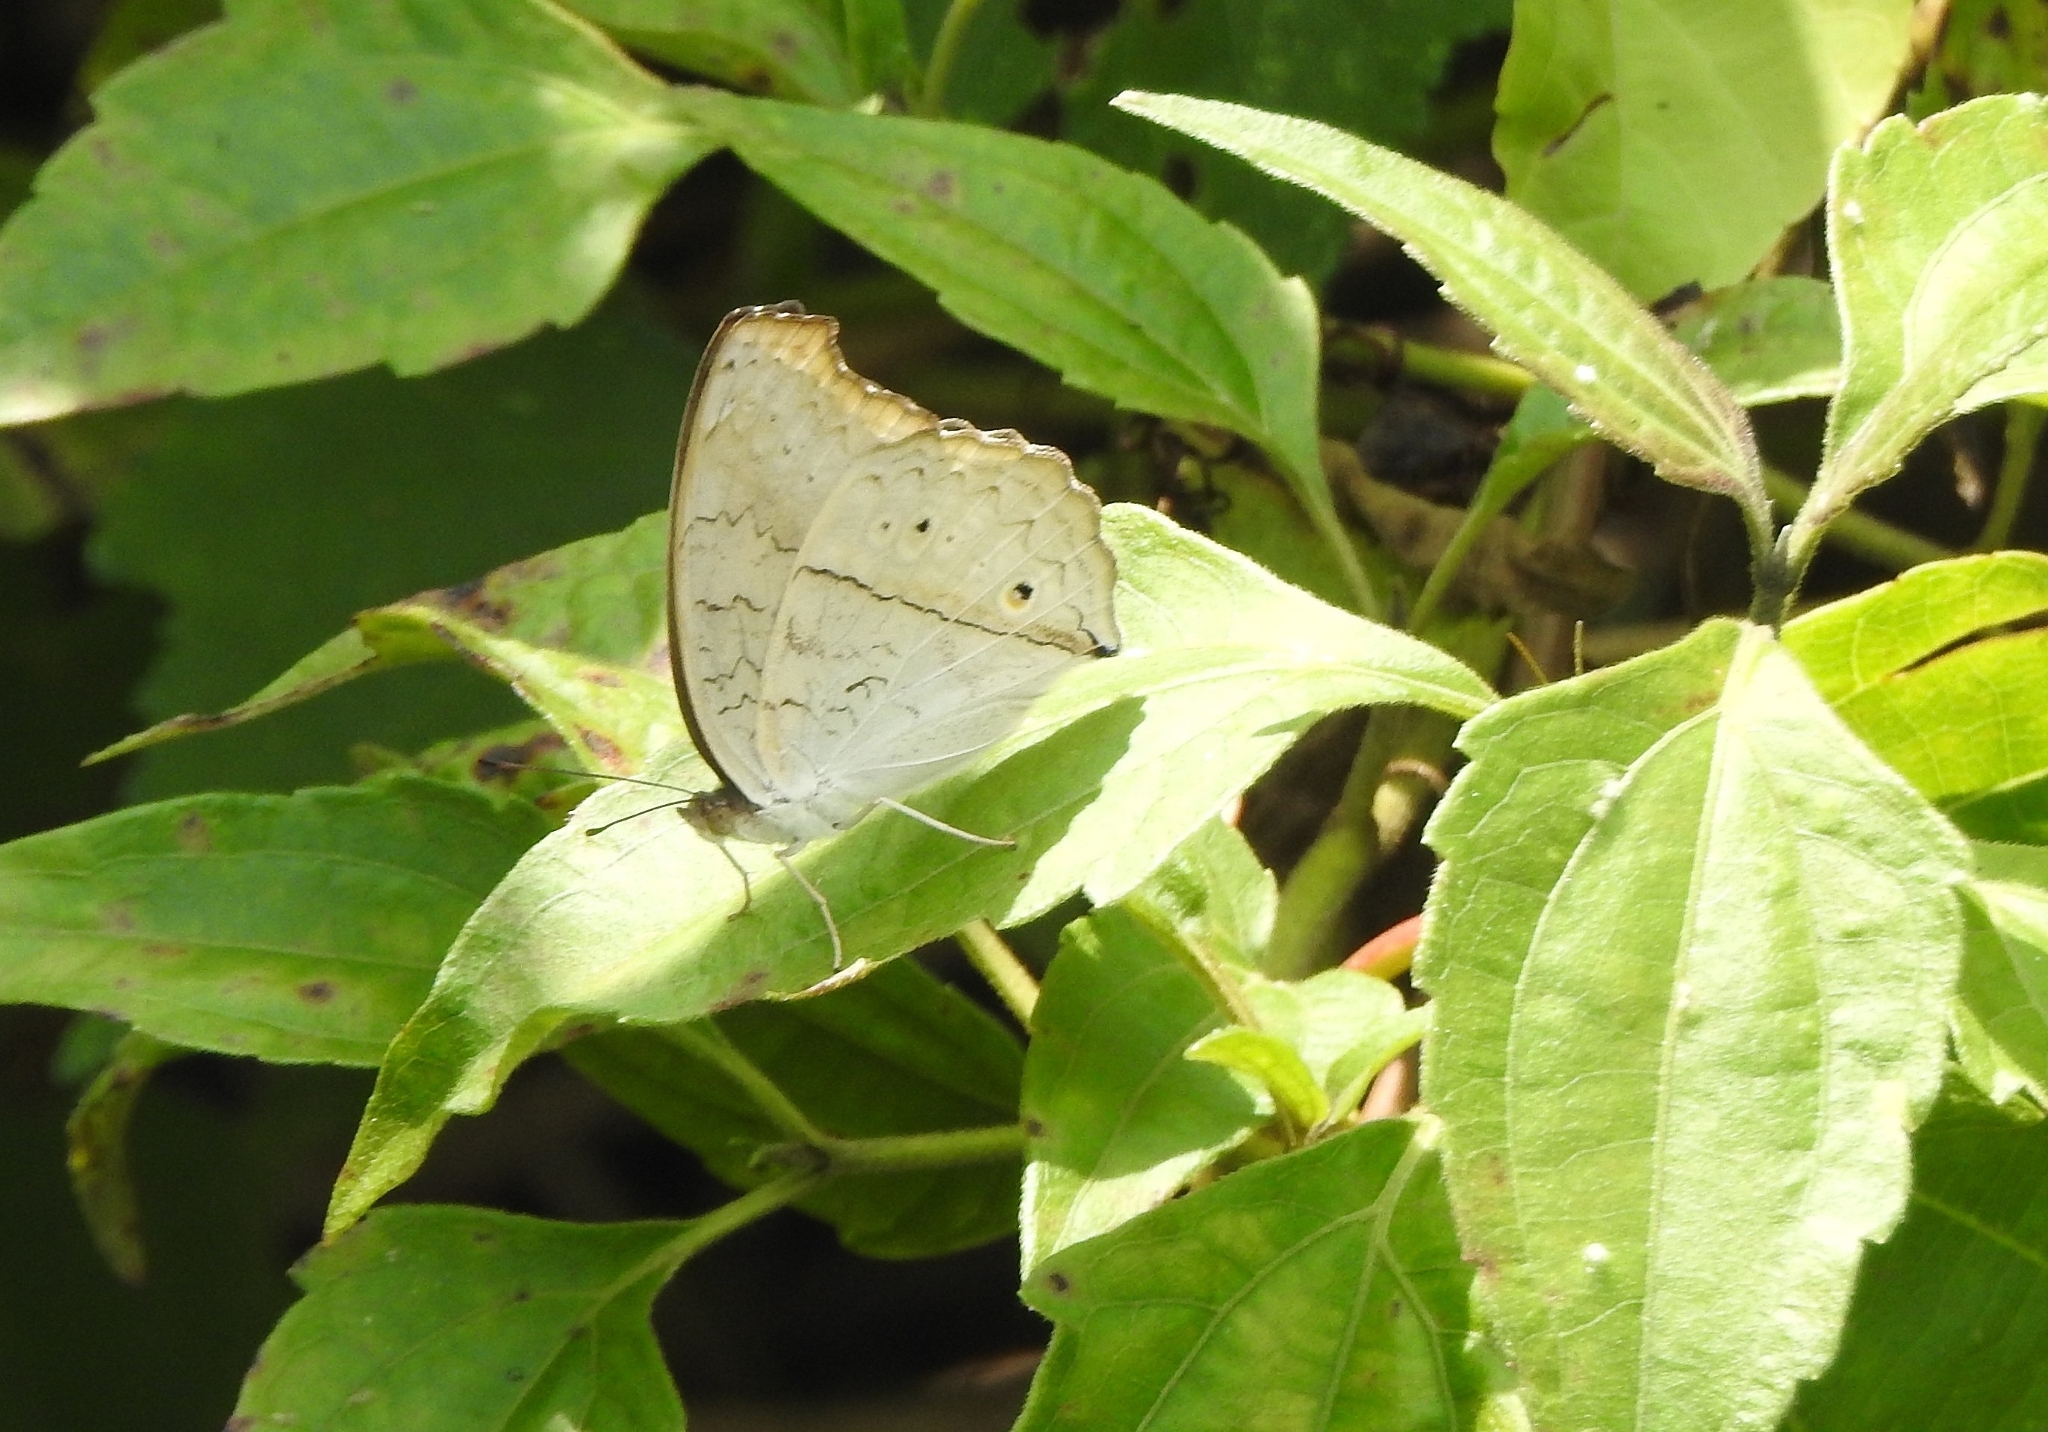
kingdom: Animalia
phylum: Arthropoda
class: Insecta
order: Lepidoptera
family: Nymphalidae
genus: Junonia
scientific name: Junonia atlites
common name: Grey pansy
